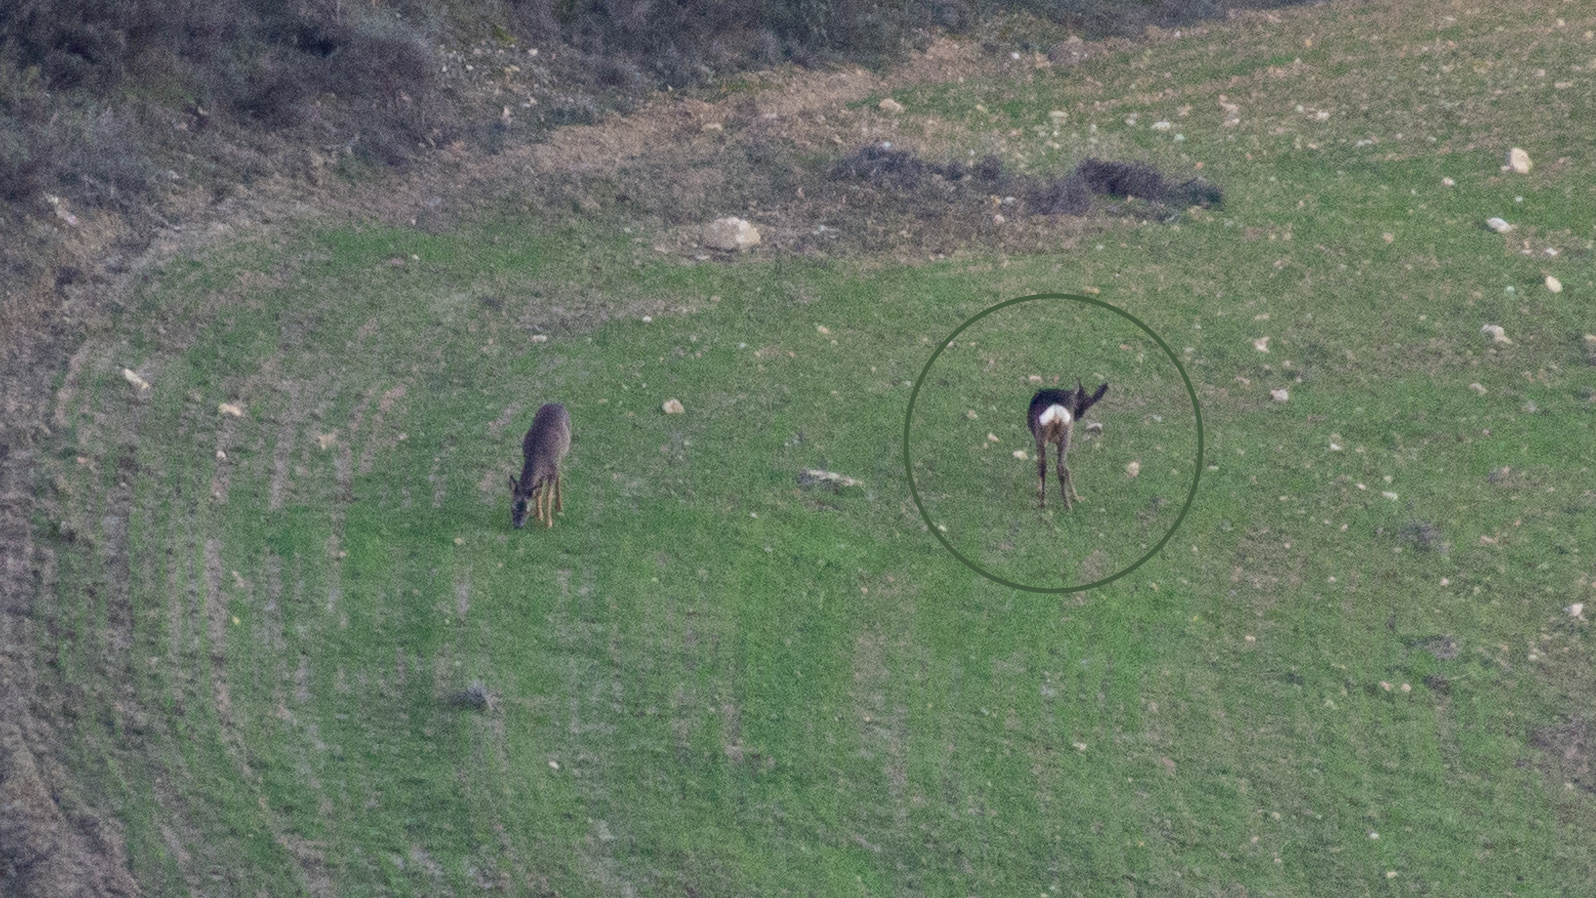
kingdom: Animalia
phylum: Chordata
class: Mammalia
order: Artiodactyla
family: Cervidae
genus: Capreolus
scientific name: Capreolus capreolus
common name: Western roe deer
